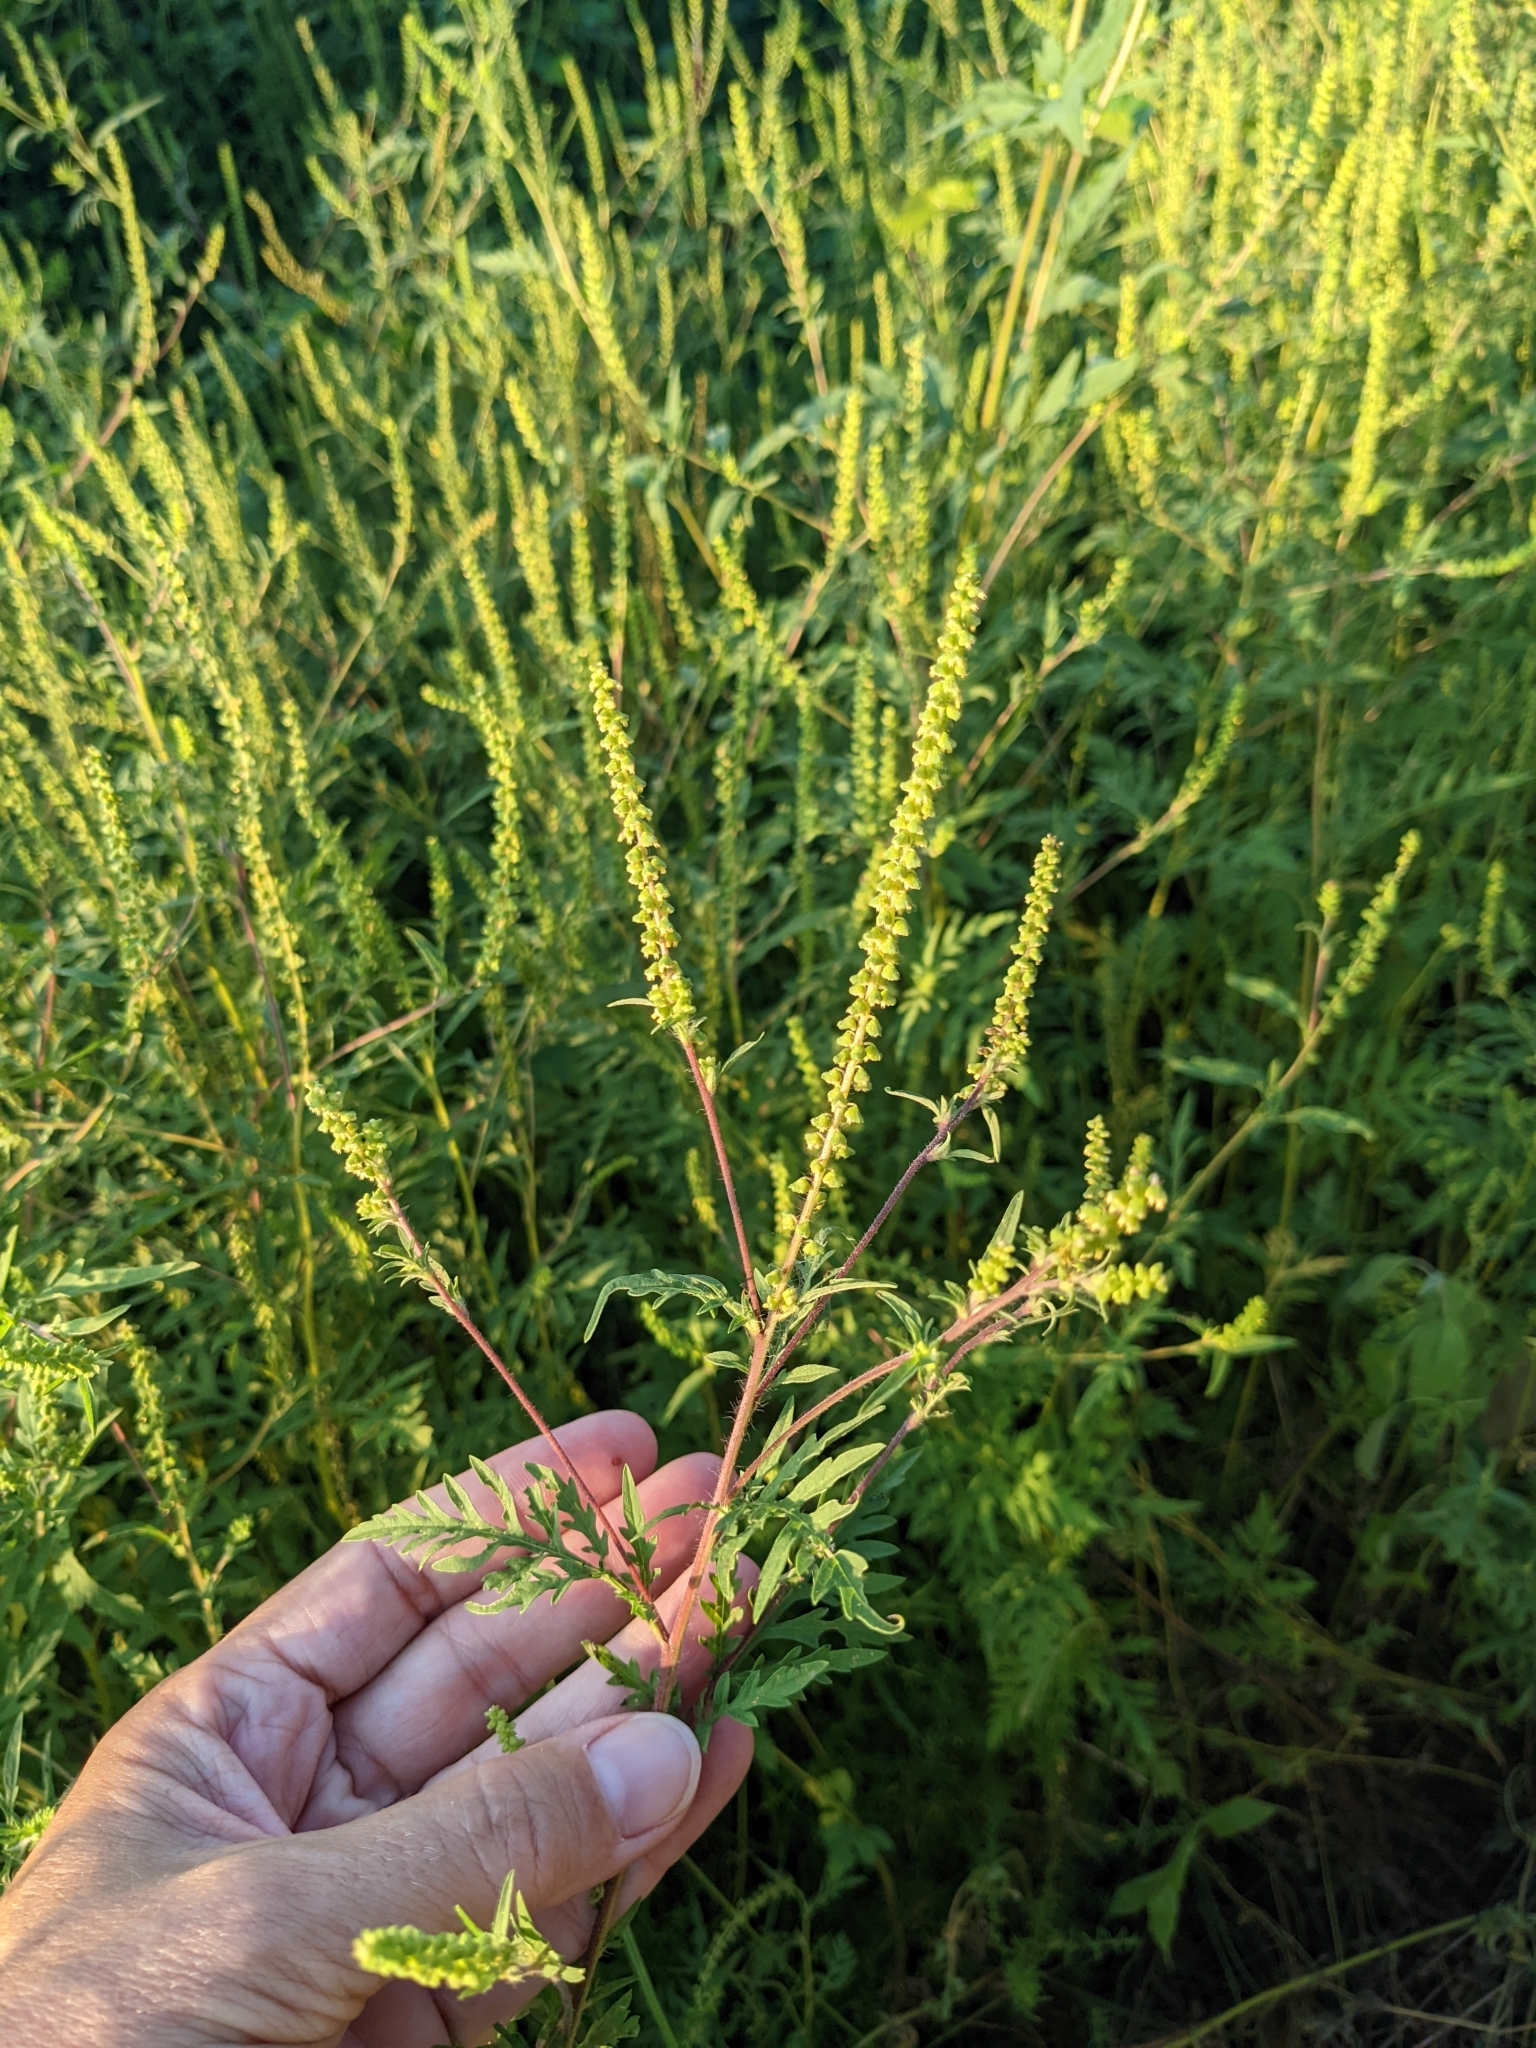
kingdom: Plantae
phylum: Tracheophyta
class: Magnoliopsida
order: Asterales
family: Asteraceae
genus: Ambrosia
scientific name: Ambrosia artemisiifolia
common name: Annual ragweed
